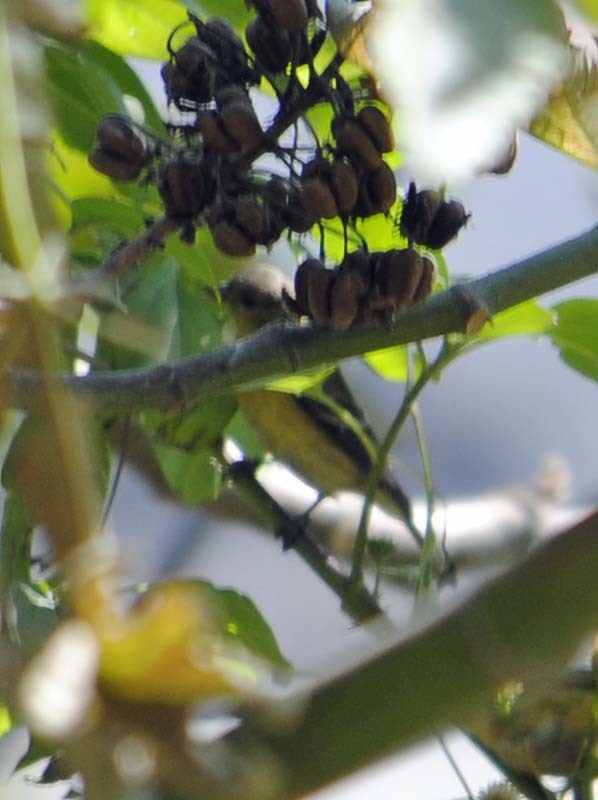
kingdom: Animalia
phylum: Chordata
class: Aves
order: Passeriformes
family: Fringillidae
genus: Spinus
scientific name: Spinus psaltria
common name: Lesser goldfinch
